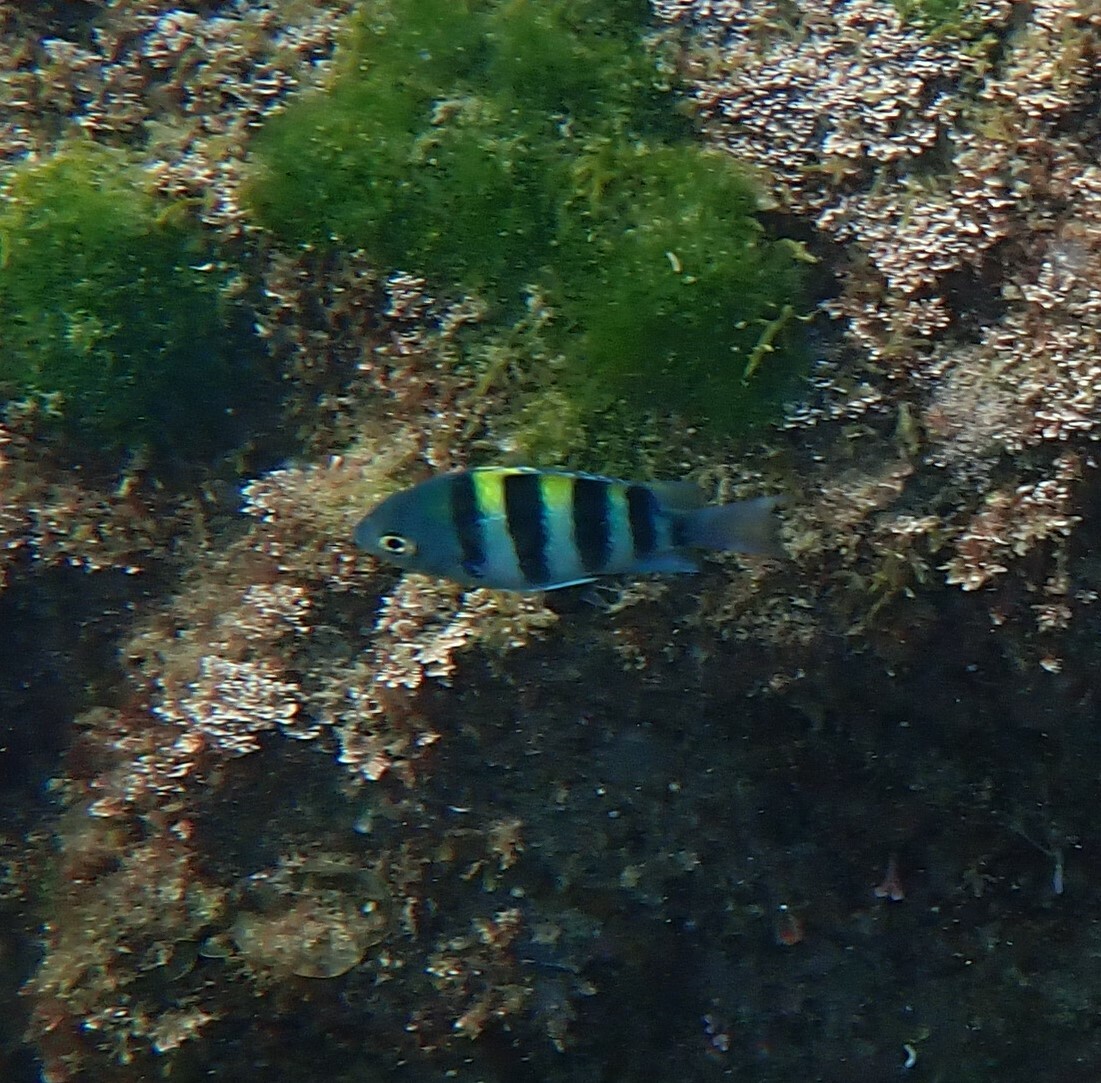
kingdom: Animalia
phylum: Chordata
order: Perciformes
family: Pomacentridae
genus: Abudefduf
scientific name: Abudefduf vaigiensis
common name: Indo-pacific sergeant
